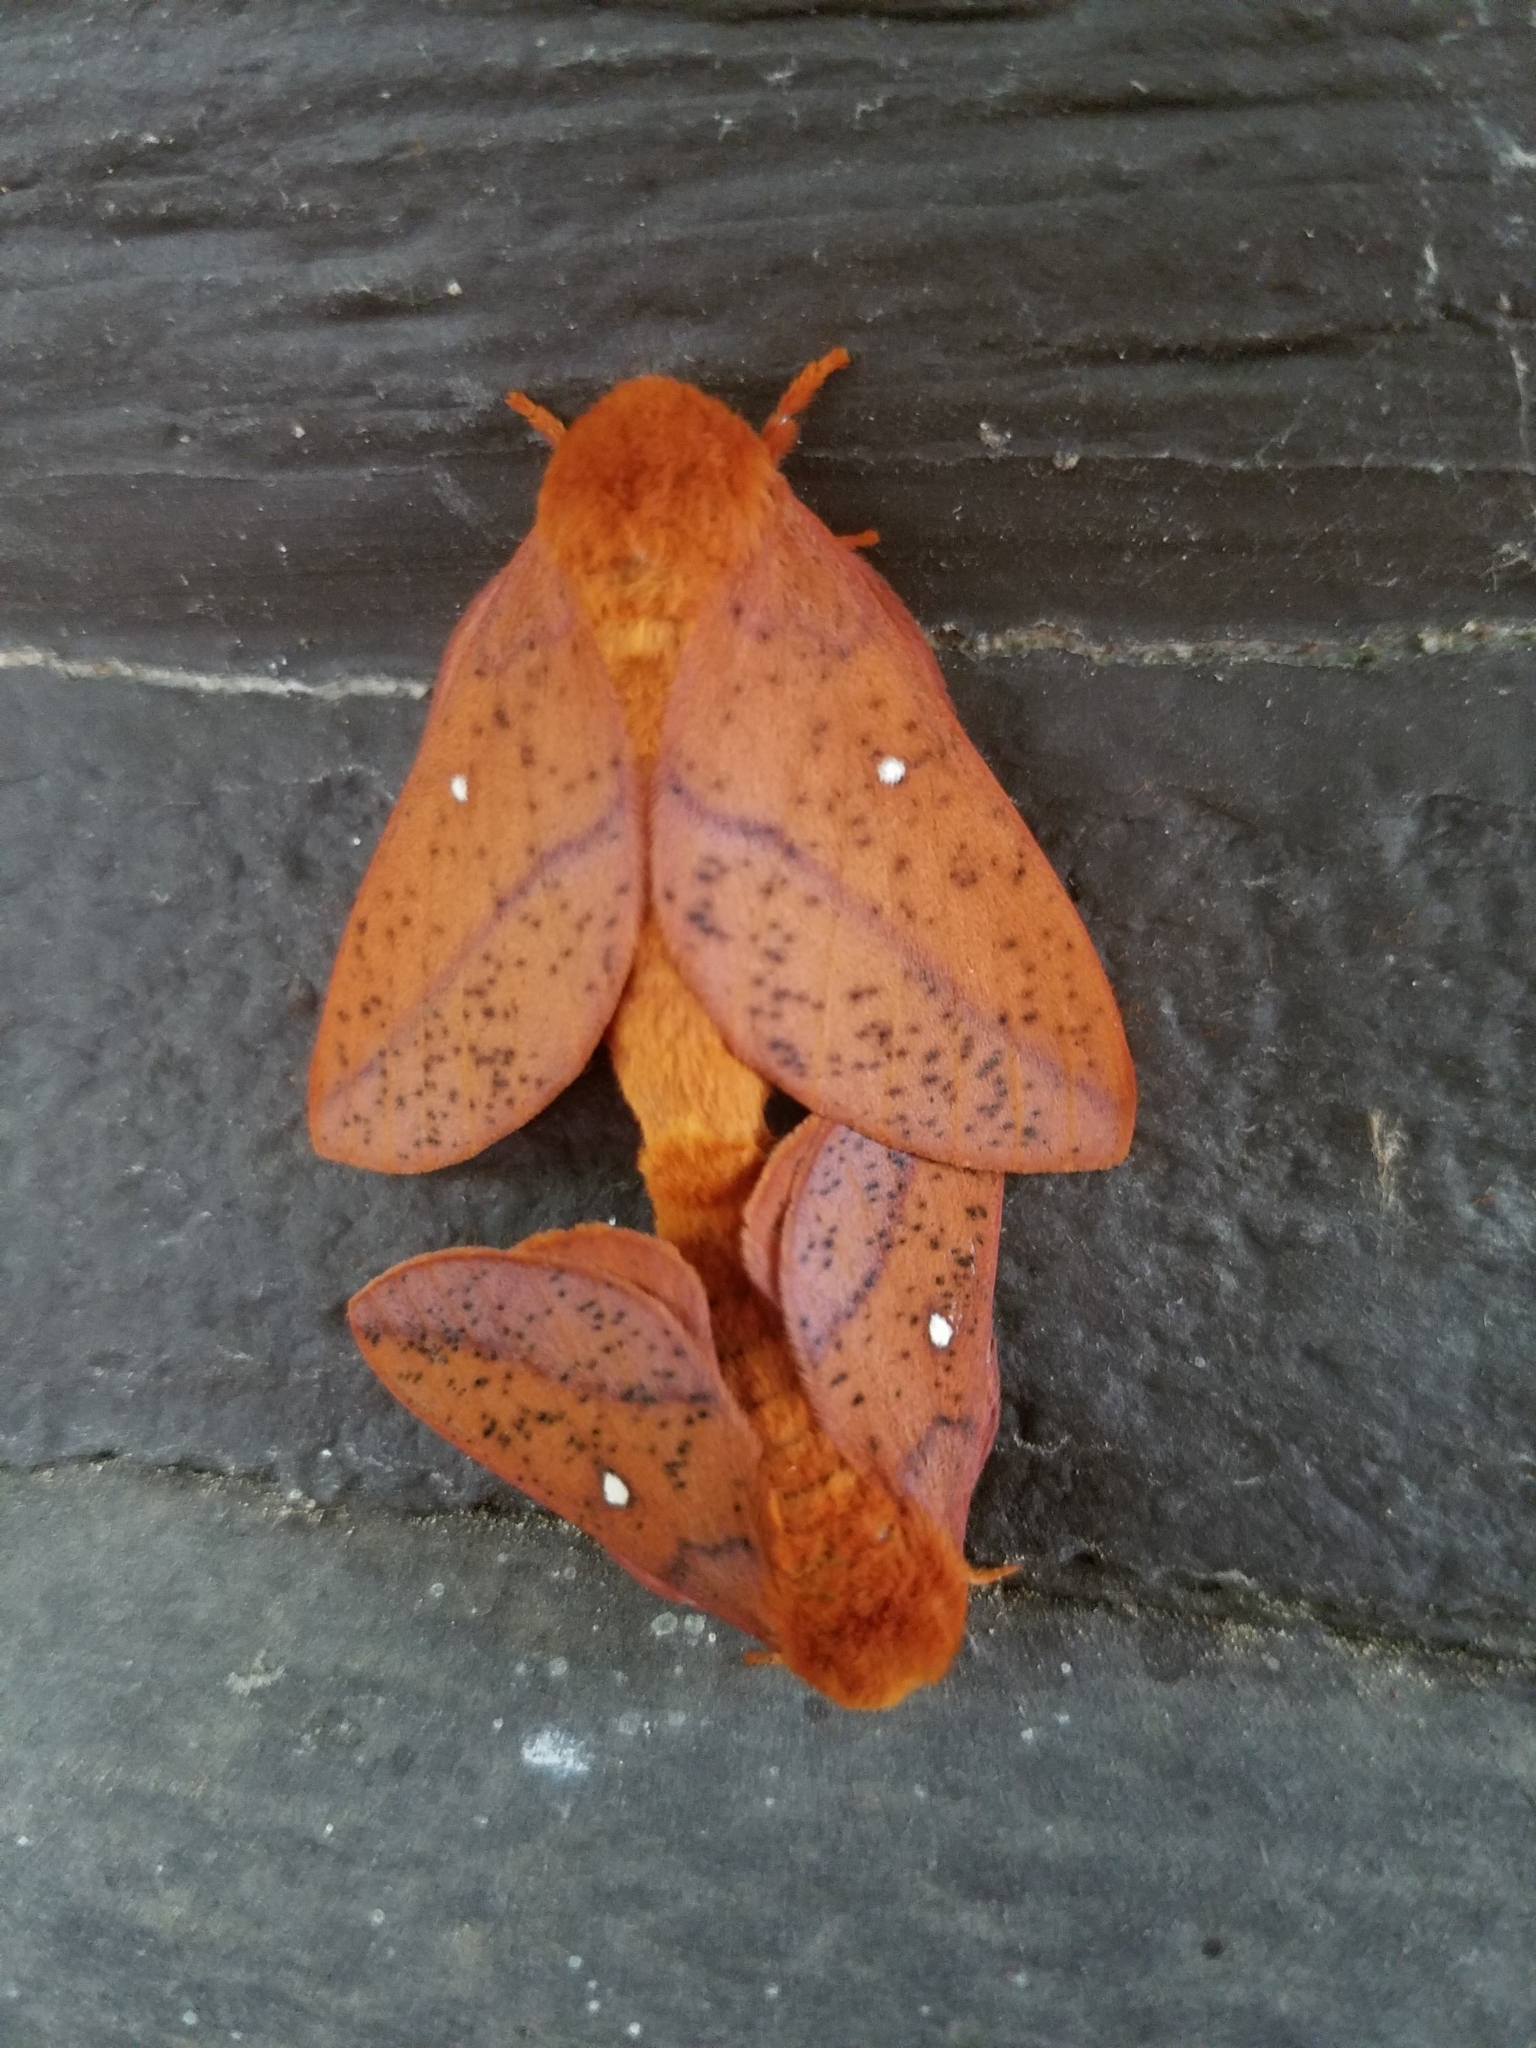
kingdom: Animalia
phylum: Arthropoda
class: Insecta
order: Lepidoptera
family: Saturniidae
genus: Anisota
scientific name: Anisota stigma
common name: Spiny oakworm moth
